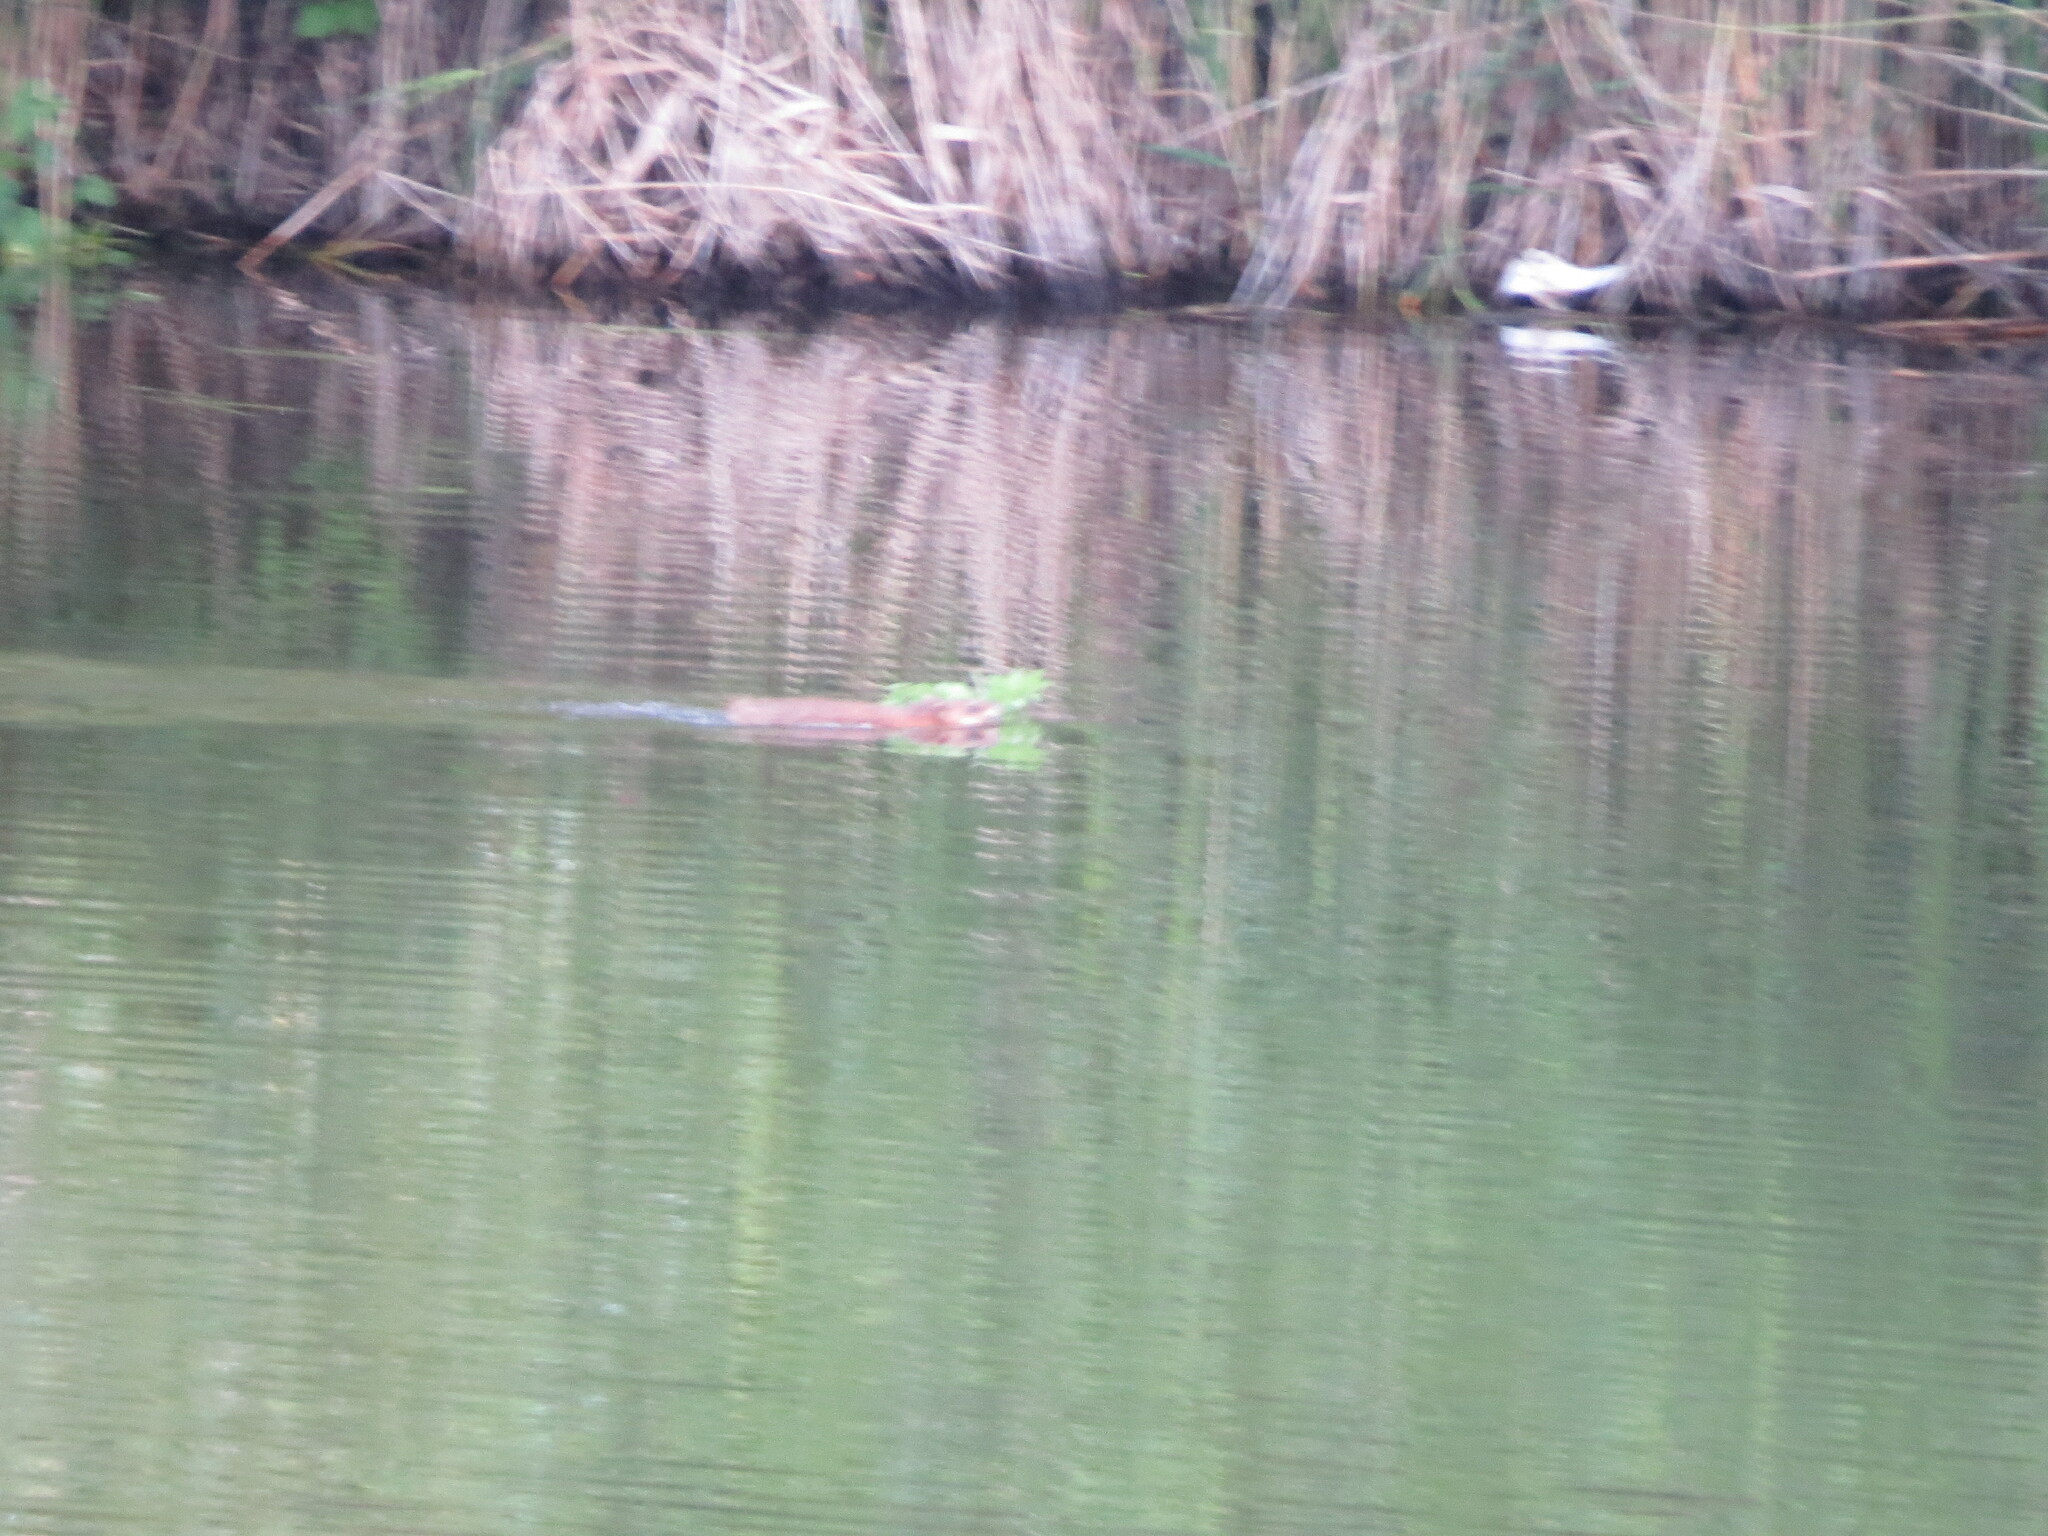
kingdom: Animalia
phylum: Chordata
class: Mammalia
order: Rodentia
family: Cricetidae
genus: Ondatra
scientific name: Ondatra zibethicus
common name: Muskrat
